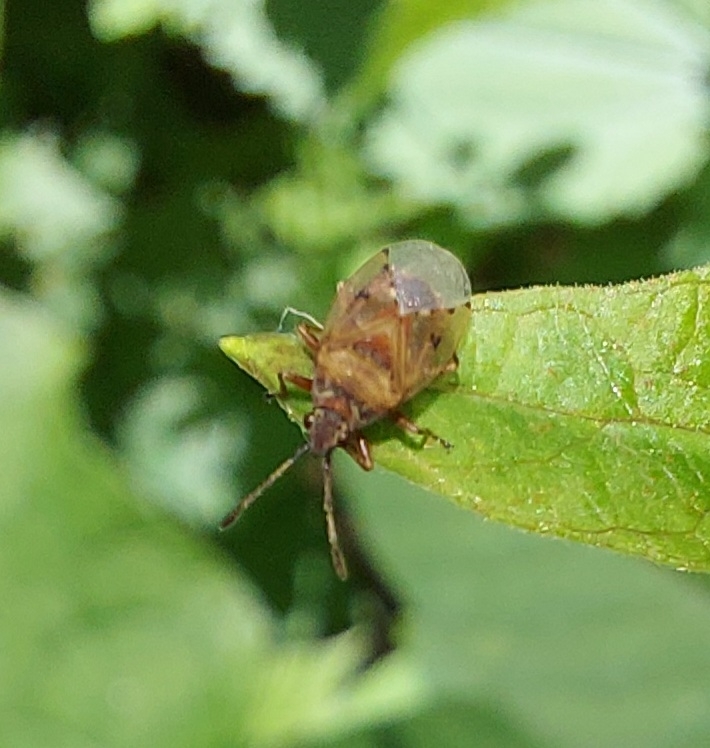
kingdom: Animalia
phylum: Arthropoda
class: Insecta
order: Hemiptera
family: Lygaeidae
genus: Kleidocerys
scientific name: Kleidocerys resedae
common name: Birch catkin bug
